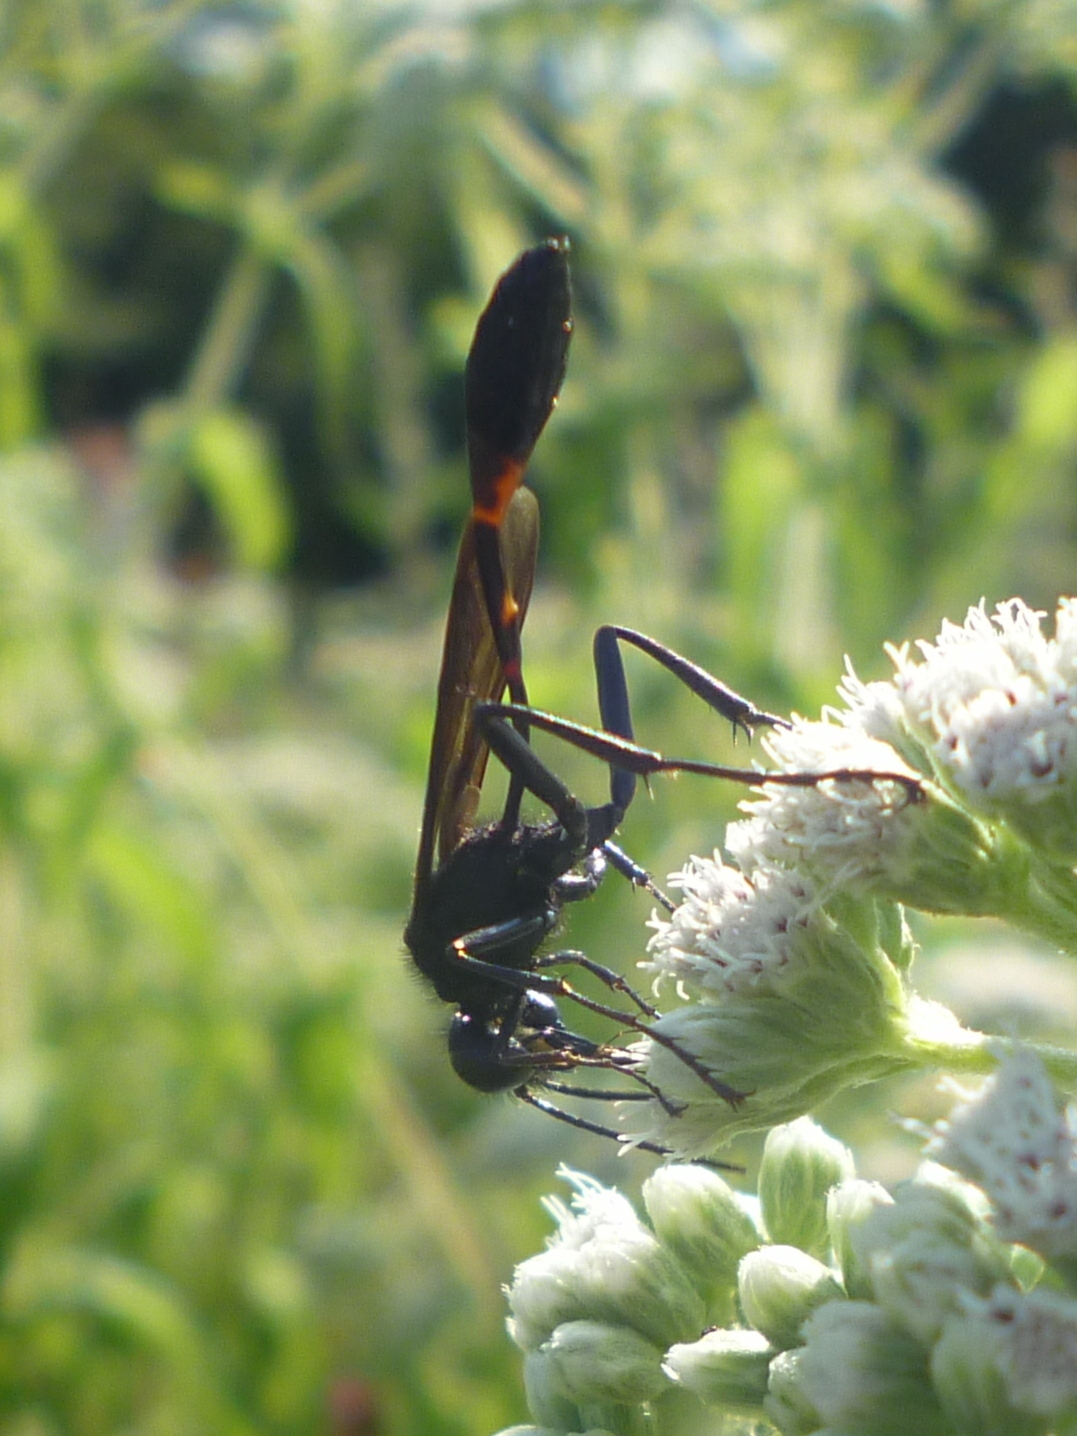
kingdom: Animalia
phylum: Arthropoda
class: Insecta
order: Hymenoptera
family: Sphecidae
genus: Ammophila
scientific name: Ammophila nigricans
